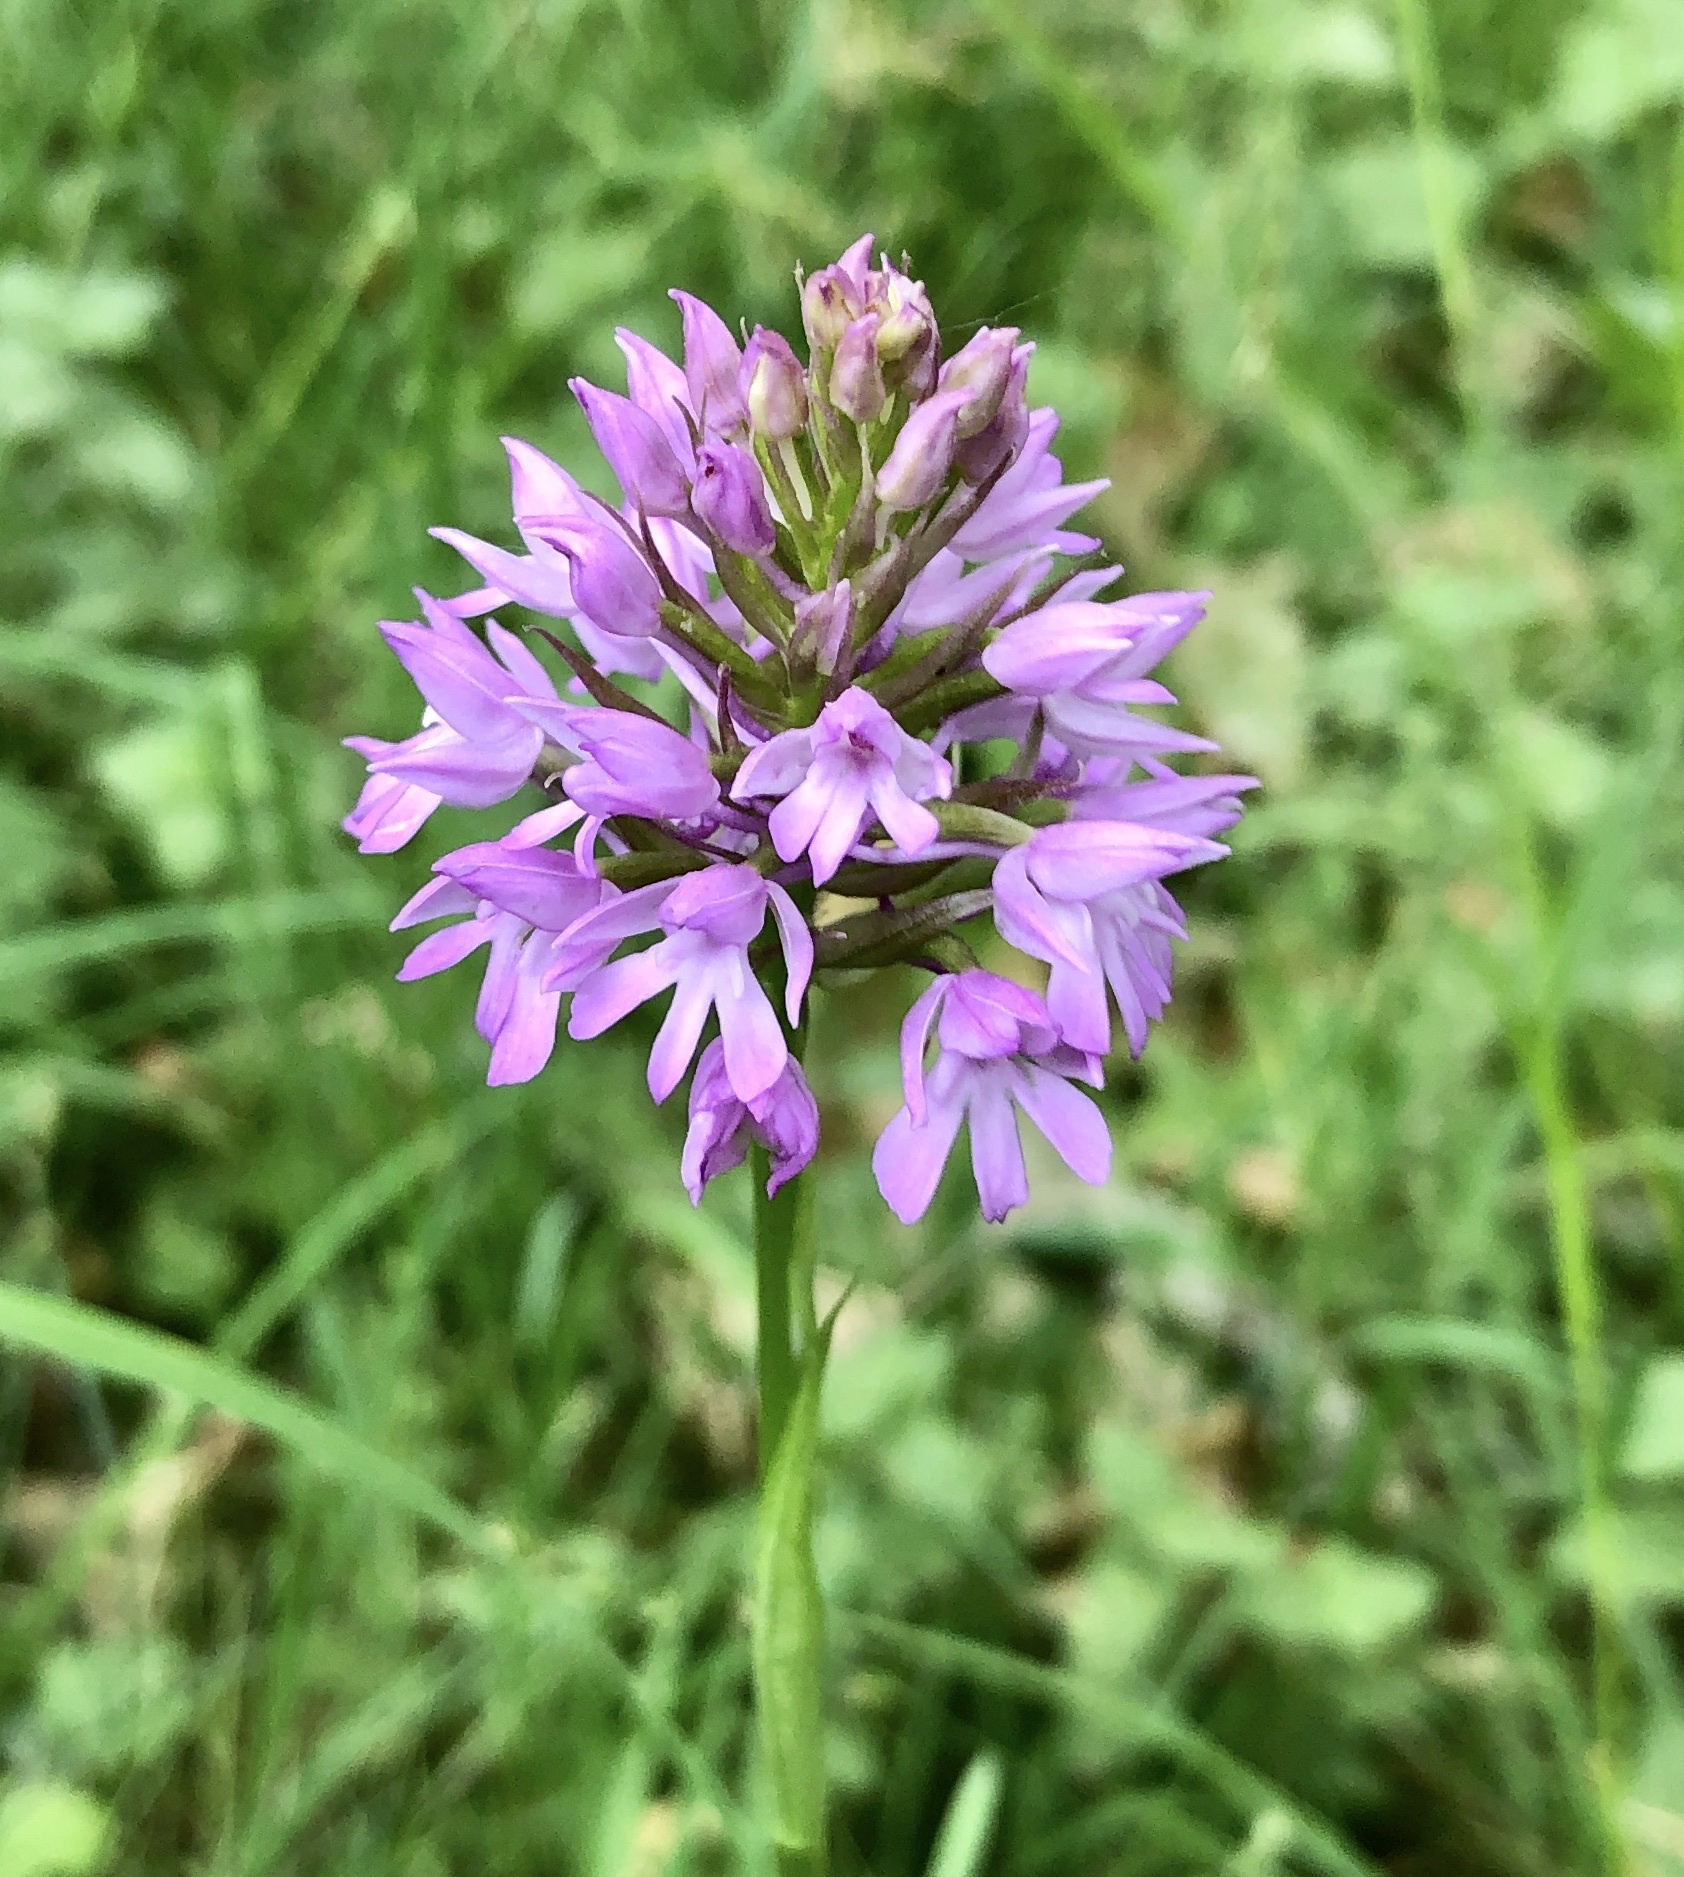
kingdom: Plantae
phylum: Tracheophyta
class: Liliopsida
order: Asparagales
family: Orchidaceae
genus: Anacamptis
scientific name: Anacamptis pyramidalis
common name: Pyramidal orchid
